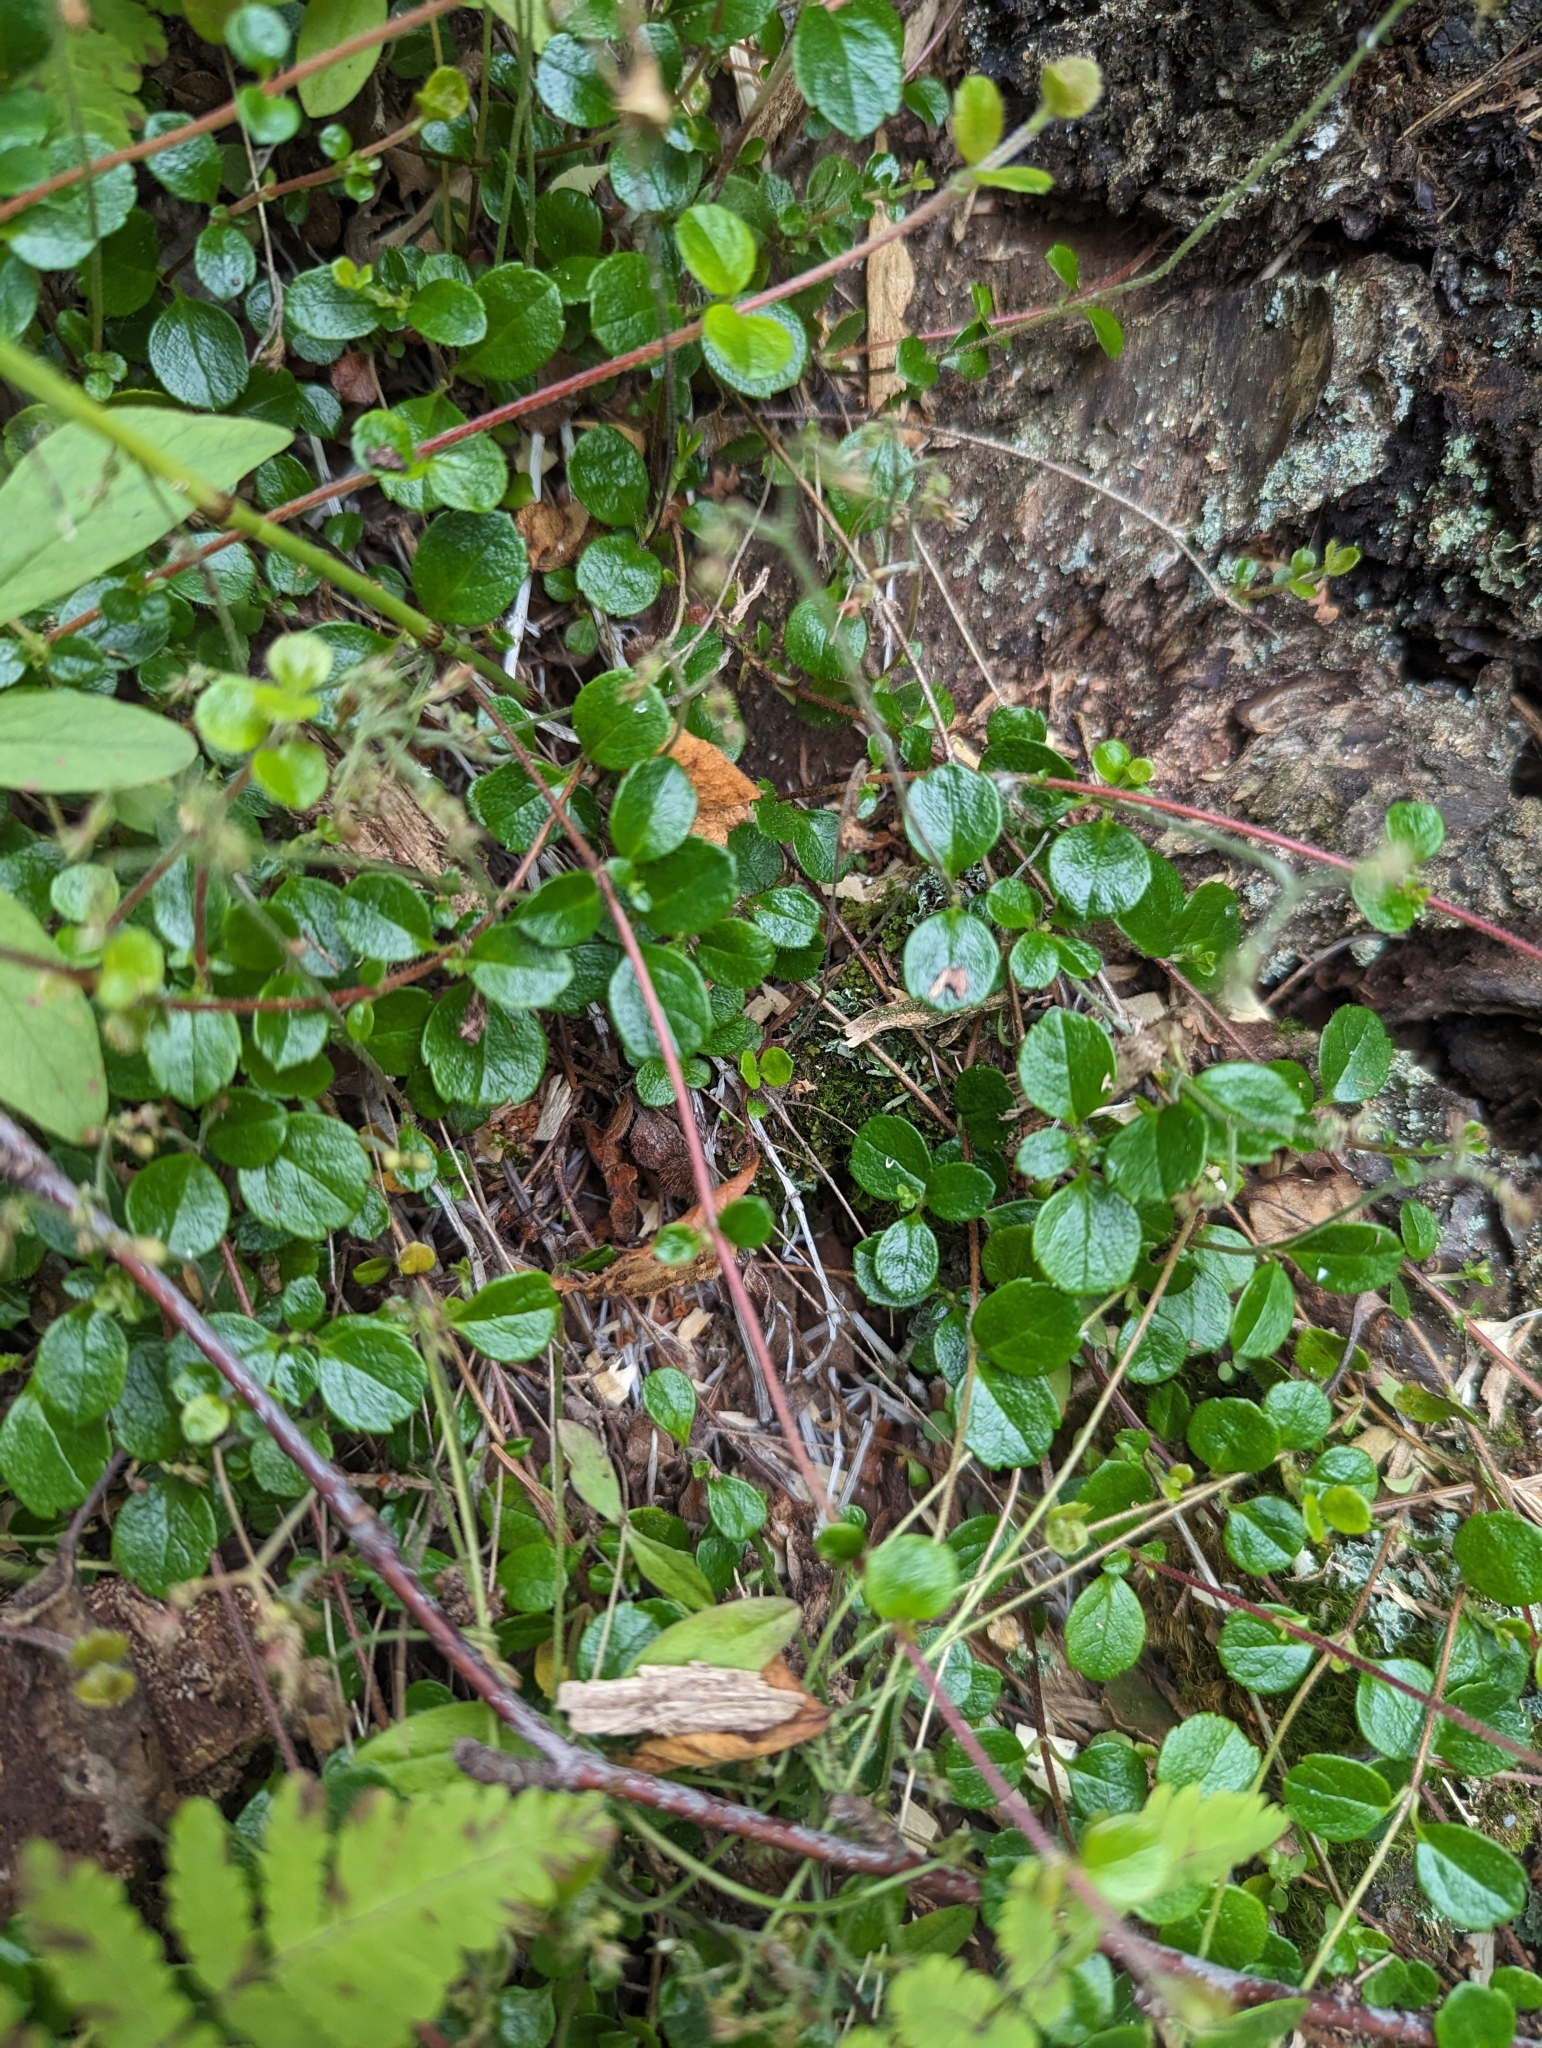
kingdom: Plantae
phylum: Tracheophyta
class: Magnoliopsida
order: Dipsacales
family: Caprifoliaceae
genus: Linnaea
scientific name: Linnaea borealis
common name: Twinflower
